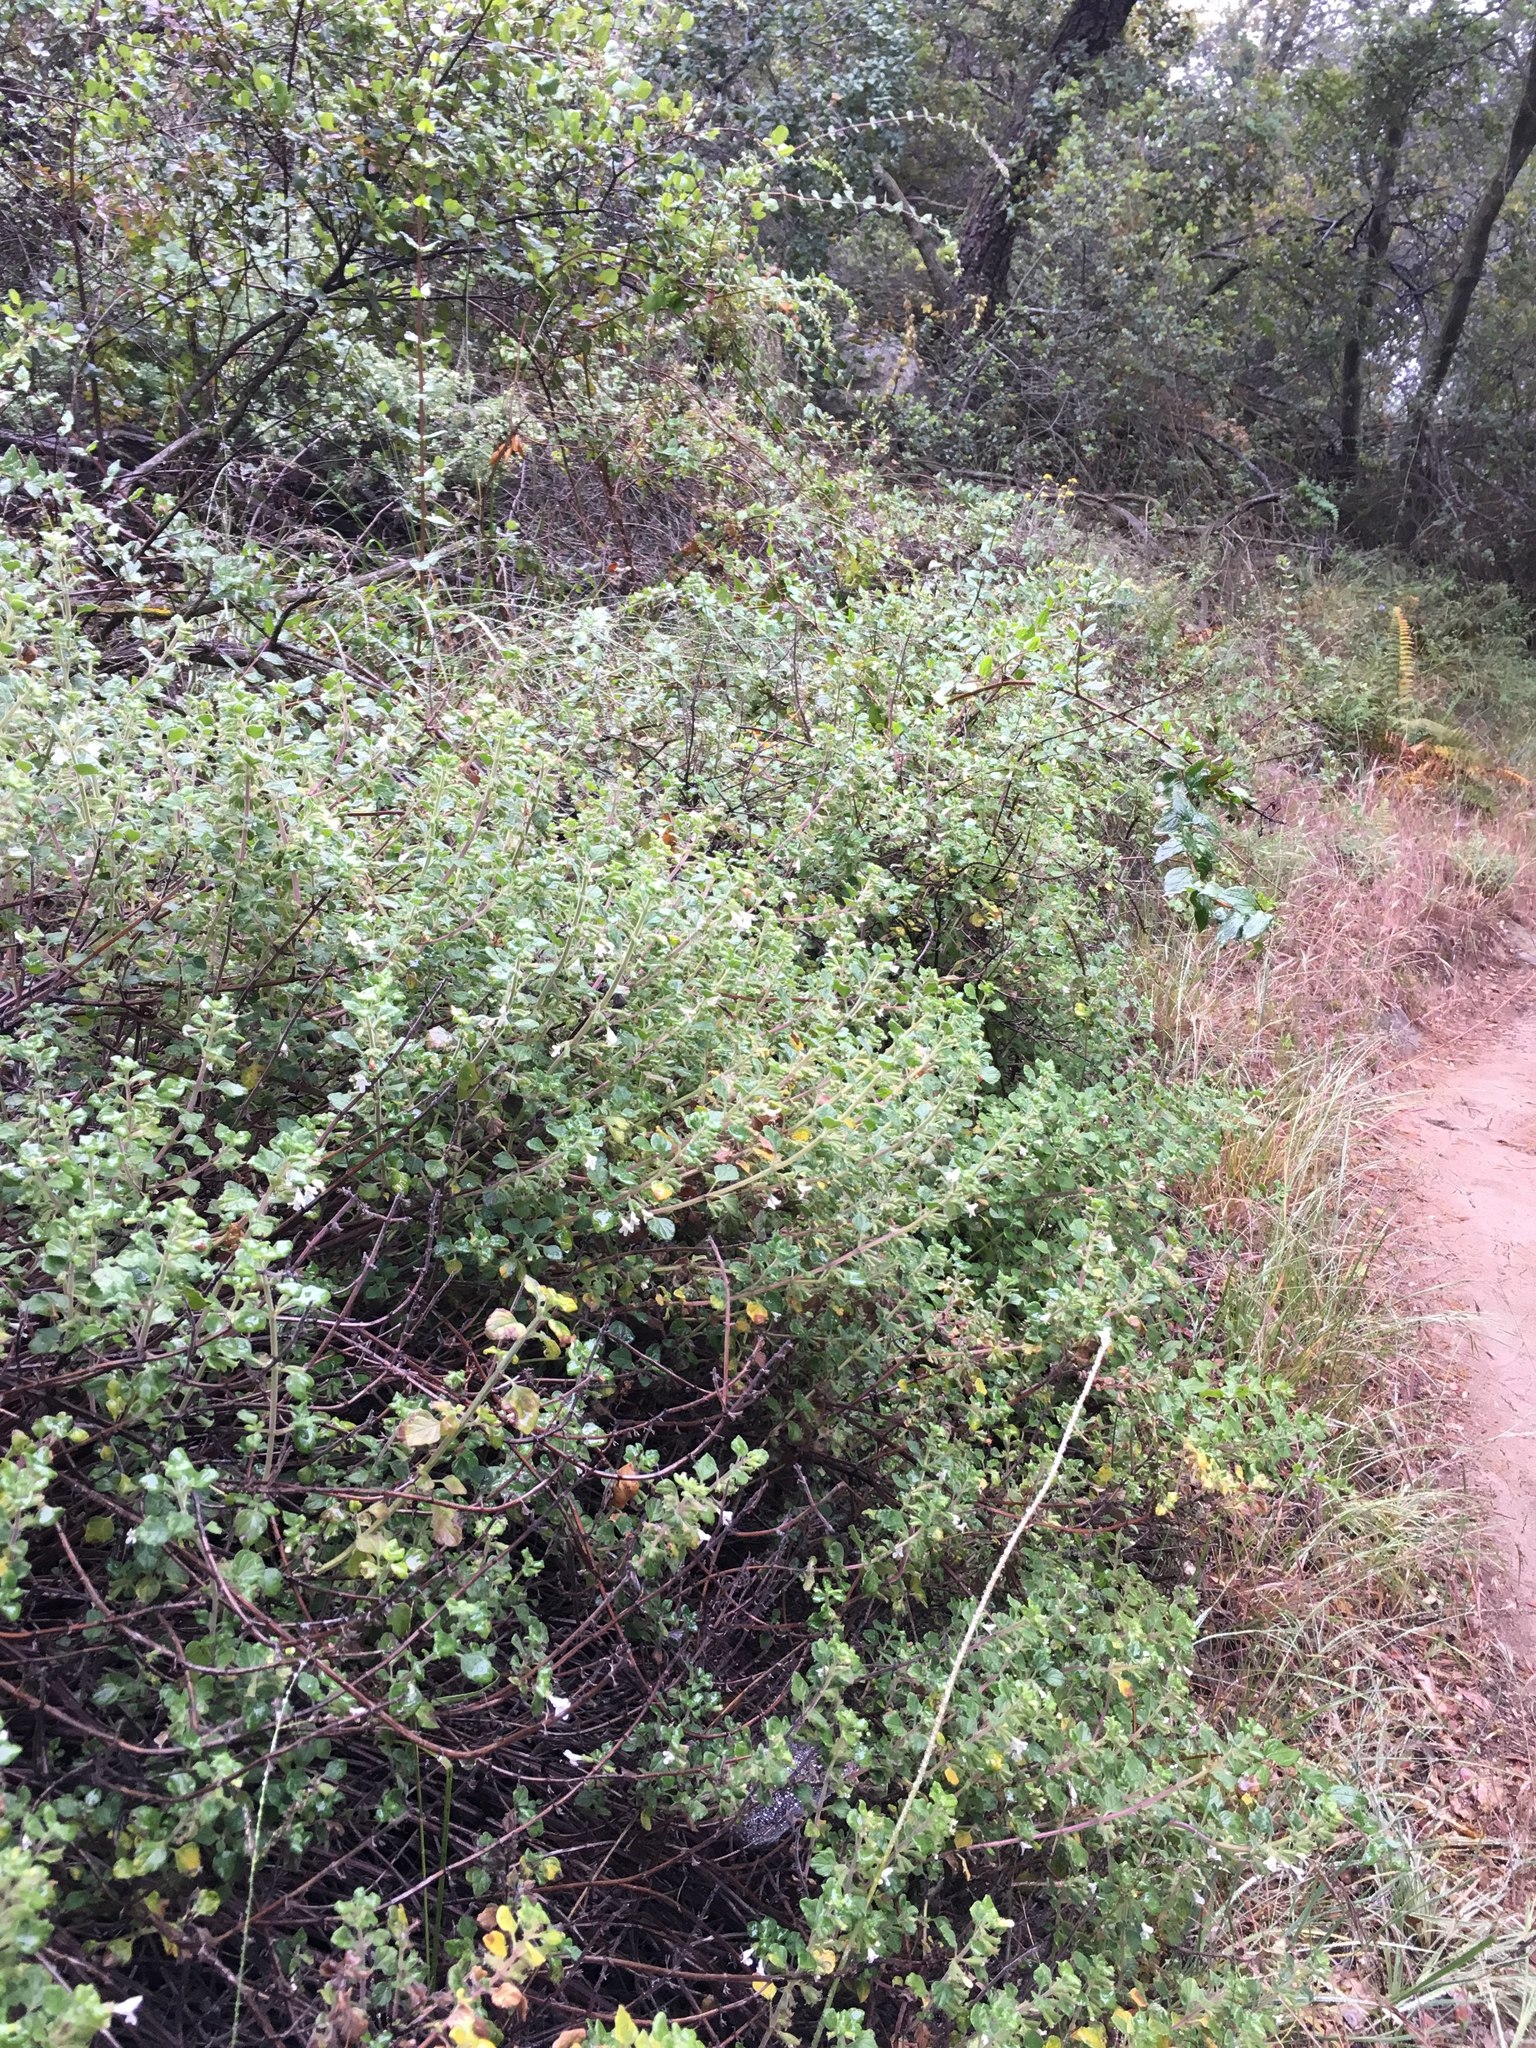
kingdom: Plantae
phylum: Tracheophyta
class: Magnoliopsida
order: Lamiales
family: Lamiaceae
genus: Clinopodium
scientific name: Clinopodium chandleri
